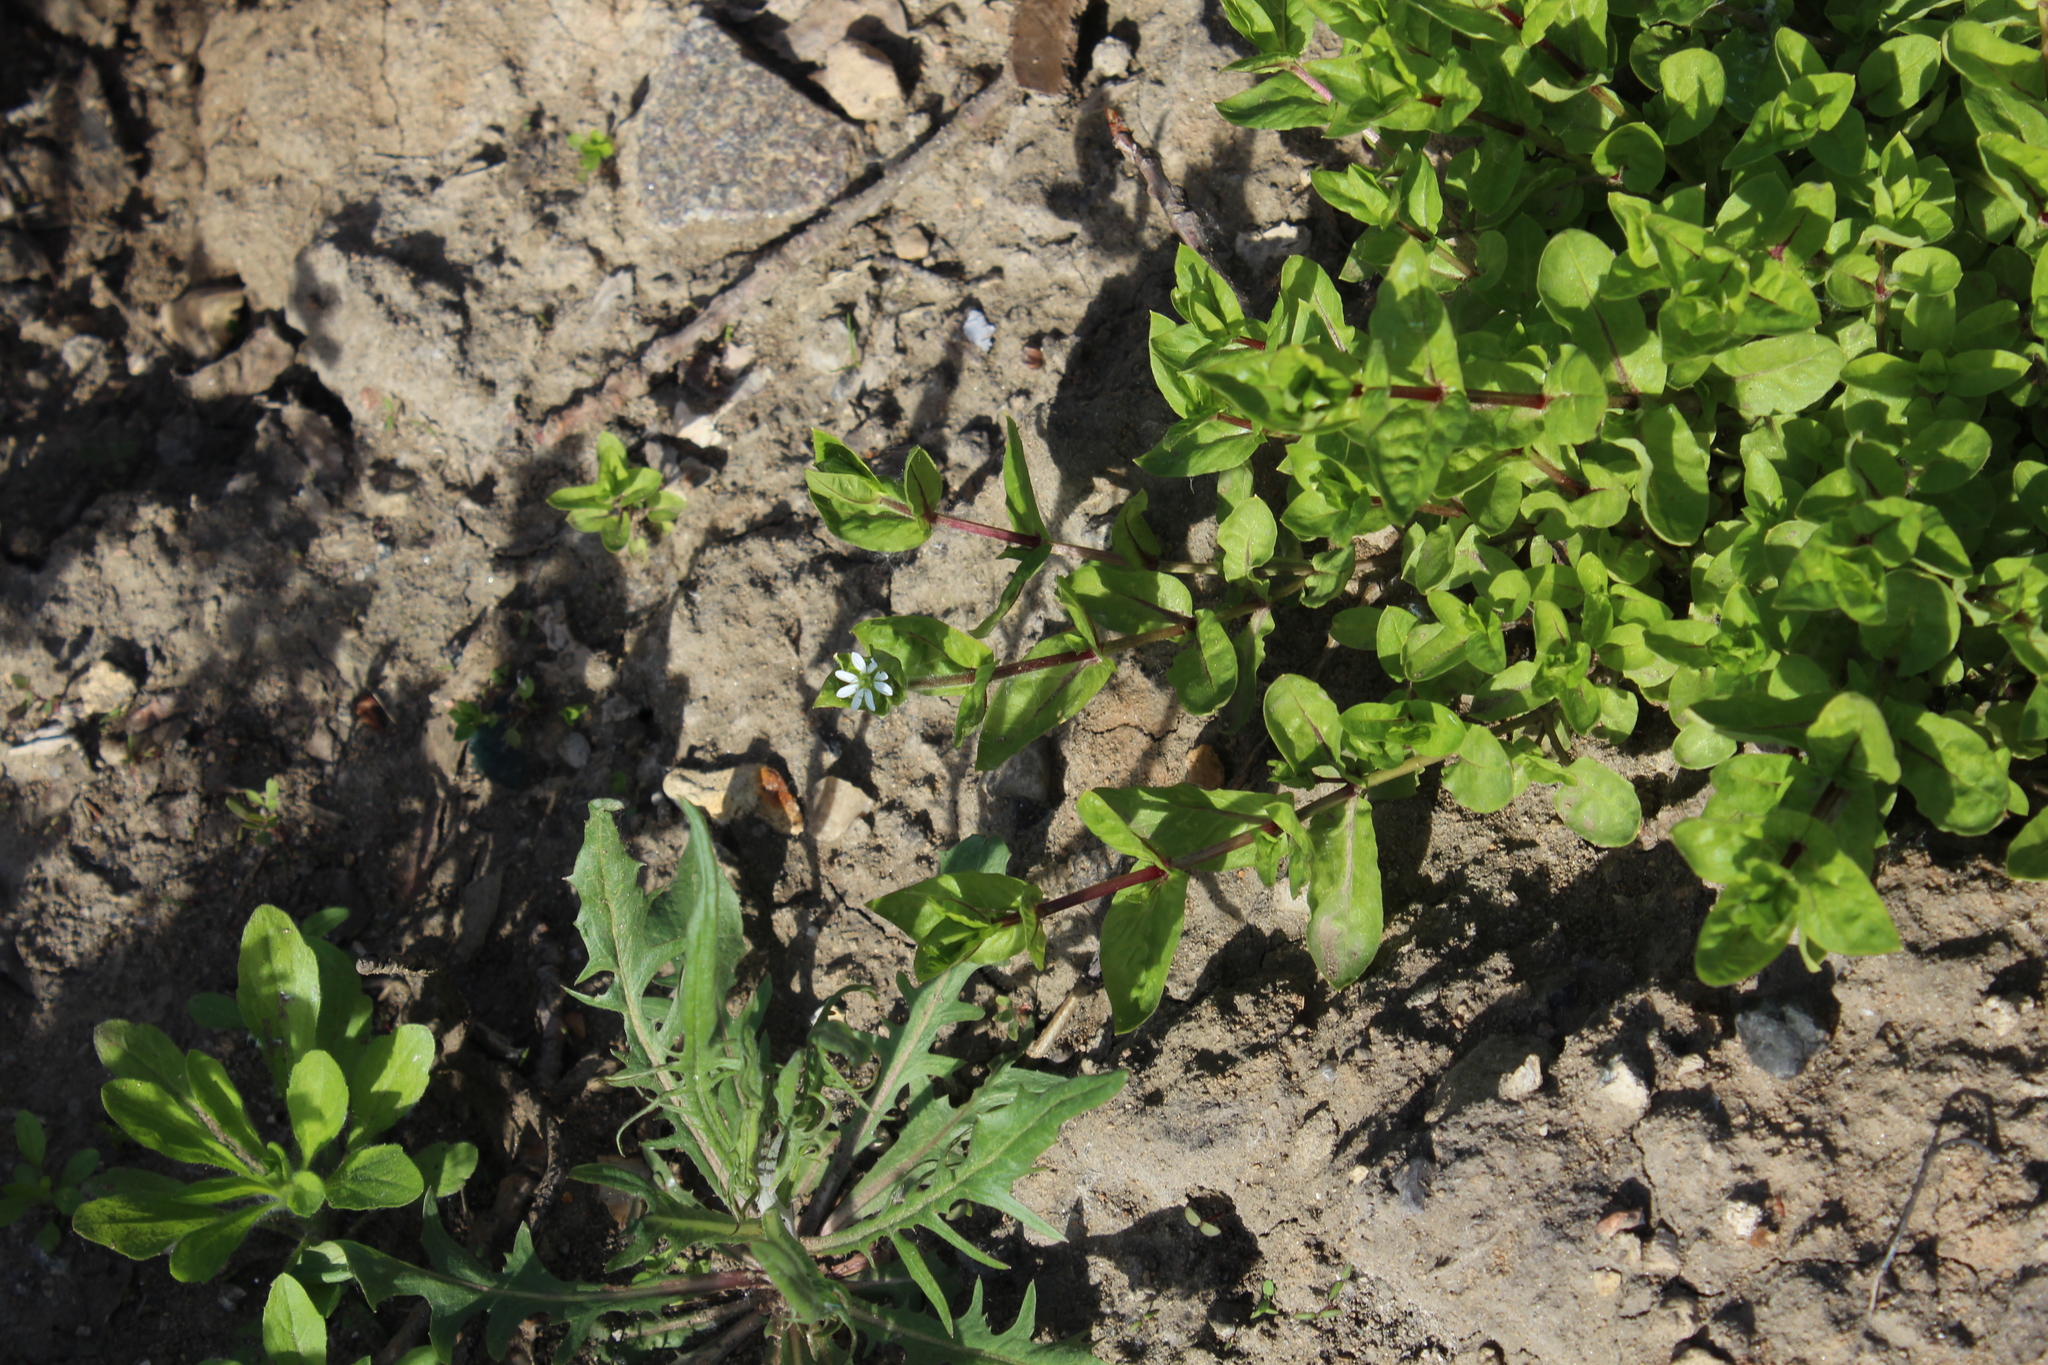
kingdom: Plantae
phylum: Tracheophyta
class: Magnoliopsida
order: Caryophyllales
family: Caryophyllaceae
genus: Stellaria
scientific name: Stellaria aquatica
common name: Water chickweed
